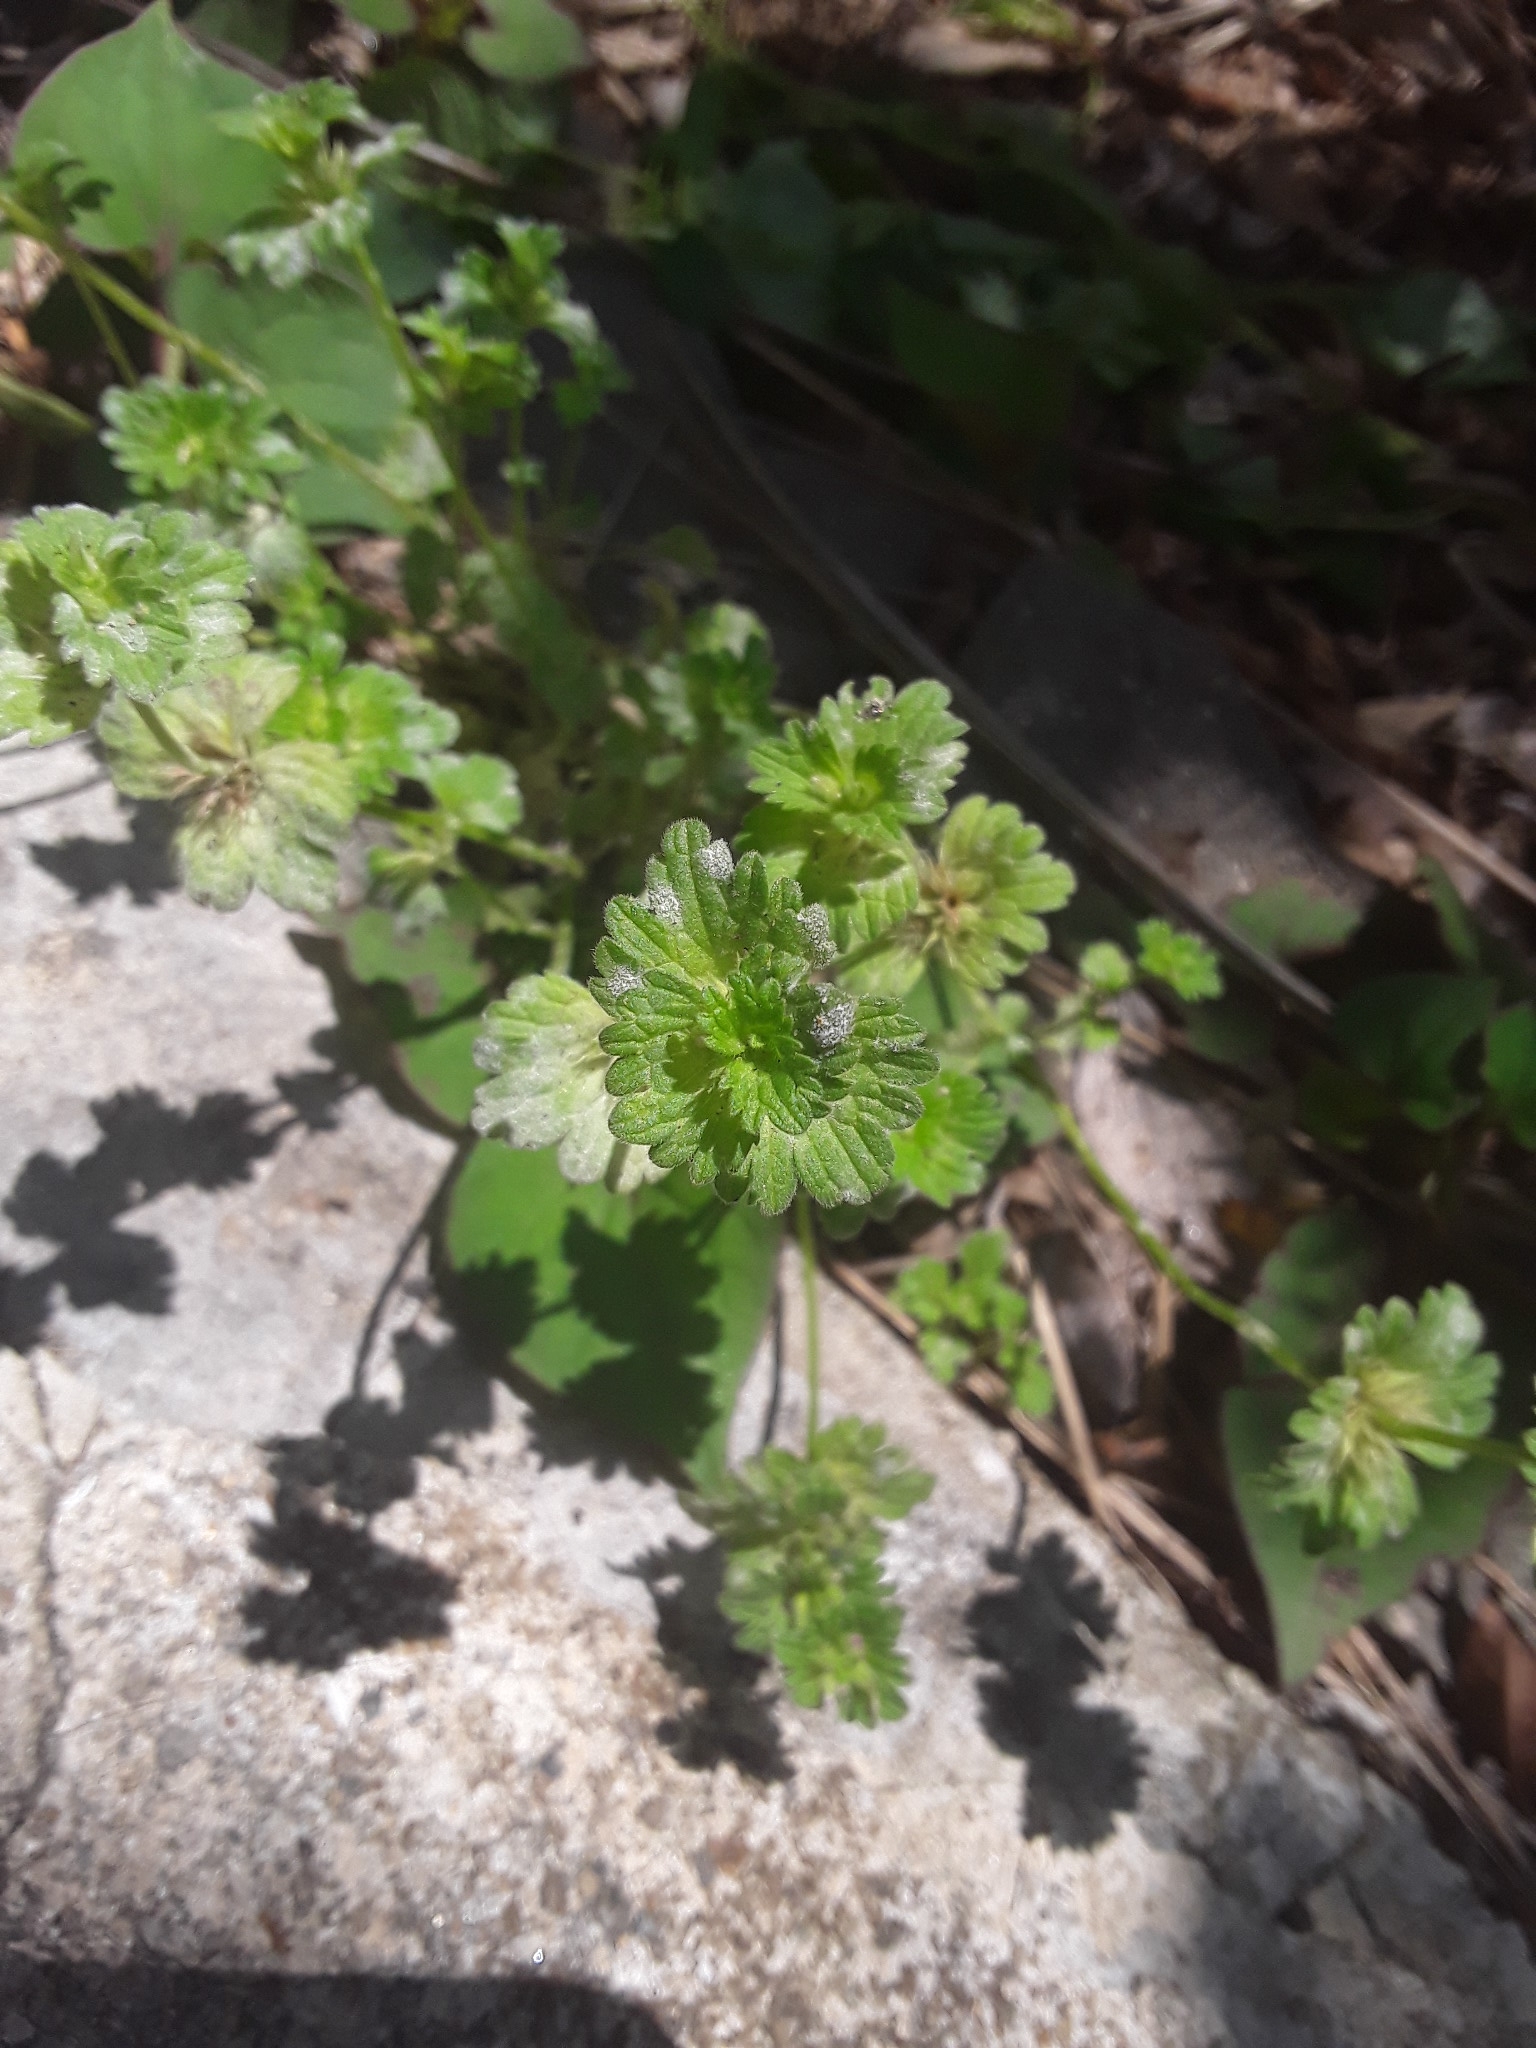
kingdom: Plantae
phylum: Tracheophyta
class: Magnoliopsida
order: Lamiales
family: Lamiaceae
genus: Lamium
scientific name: Lamium amplexicaule
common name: Henbit dead-nettle
